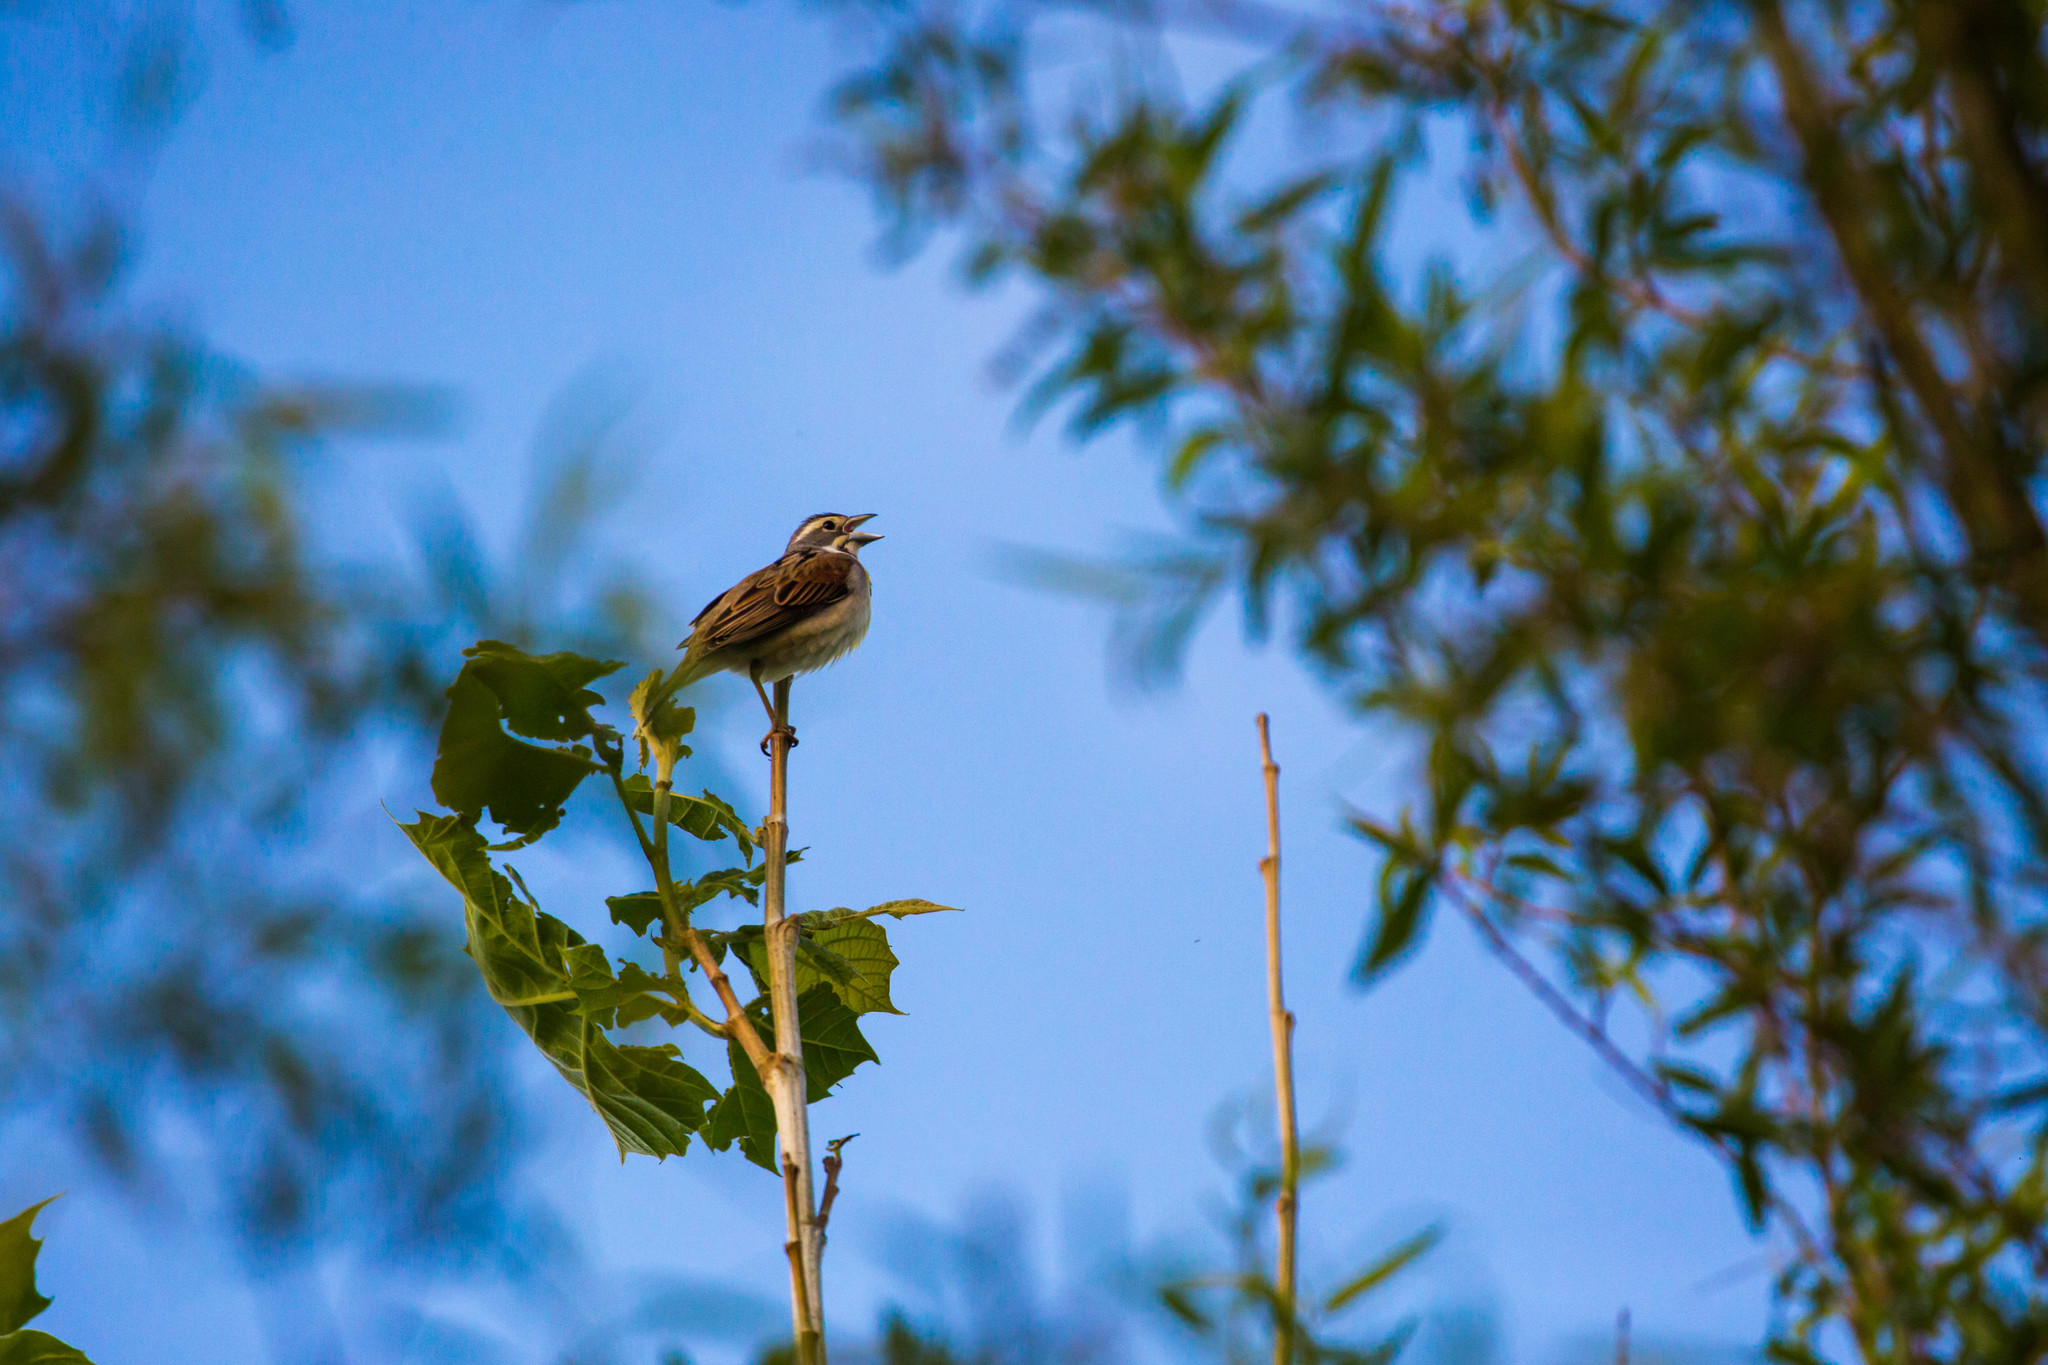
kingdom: Animalia
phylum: Chordata
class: Aves
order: Passeriformes
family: Cardinalidae
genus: Spiza
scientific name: Spiza americana
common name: Dickcissel
